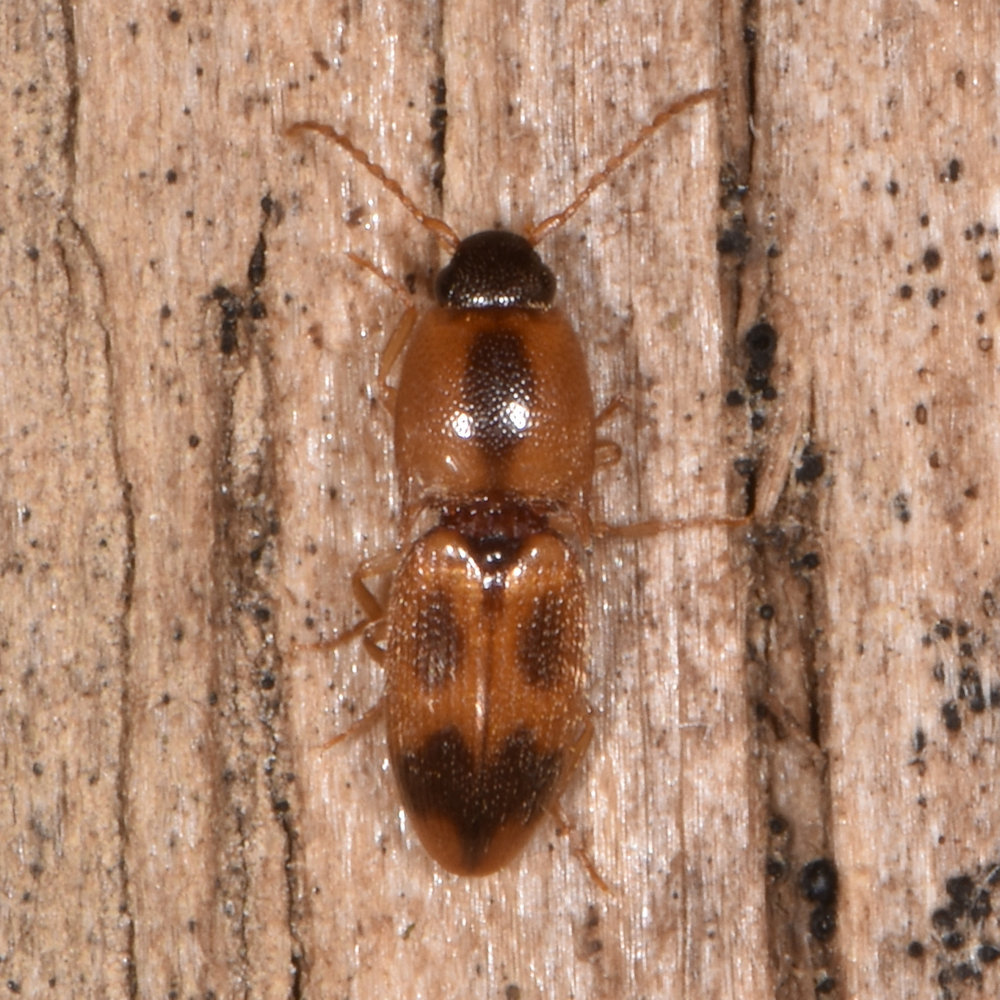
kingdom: Animalia
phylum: Arthropoda
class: Insecta
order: Coleoptera
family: Elateridae
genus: Aeolus
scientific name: Aeolus mellillus
